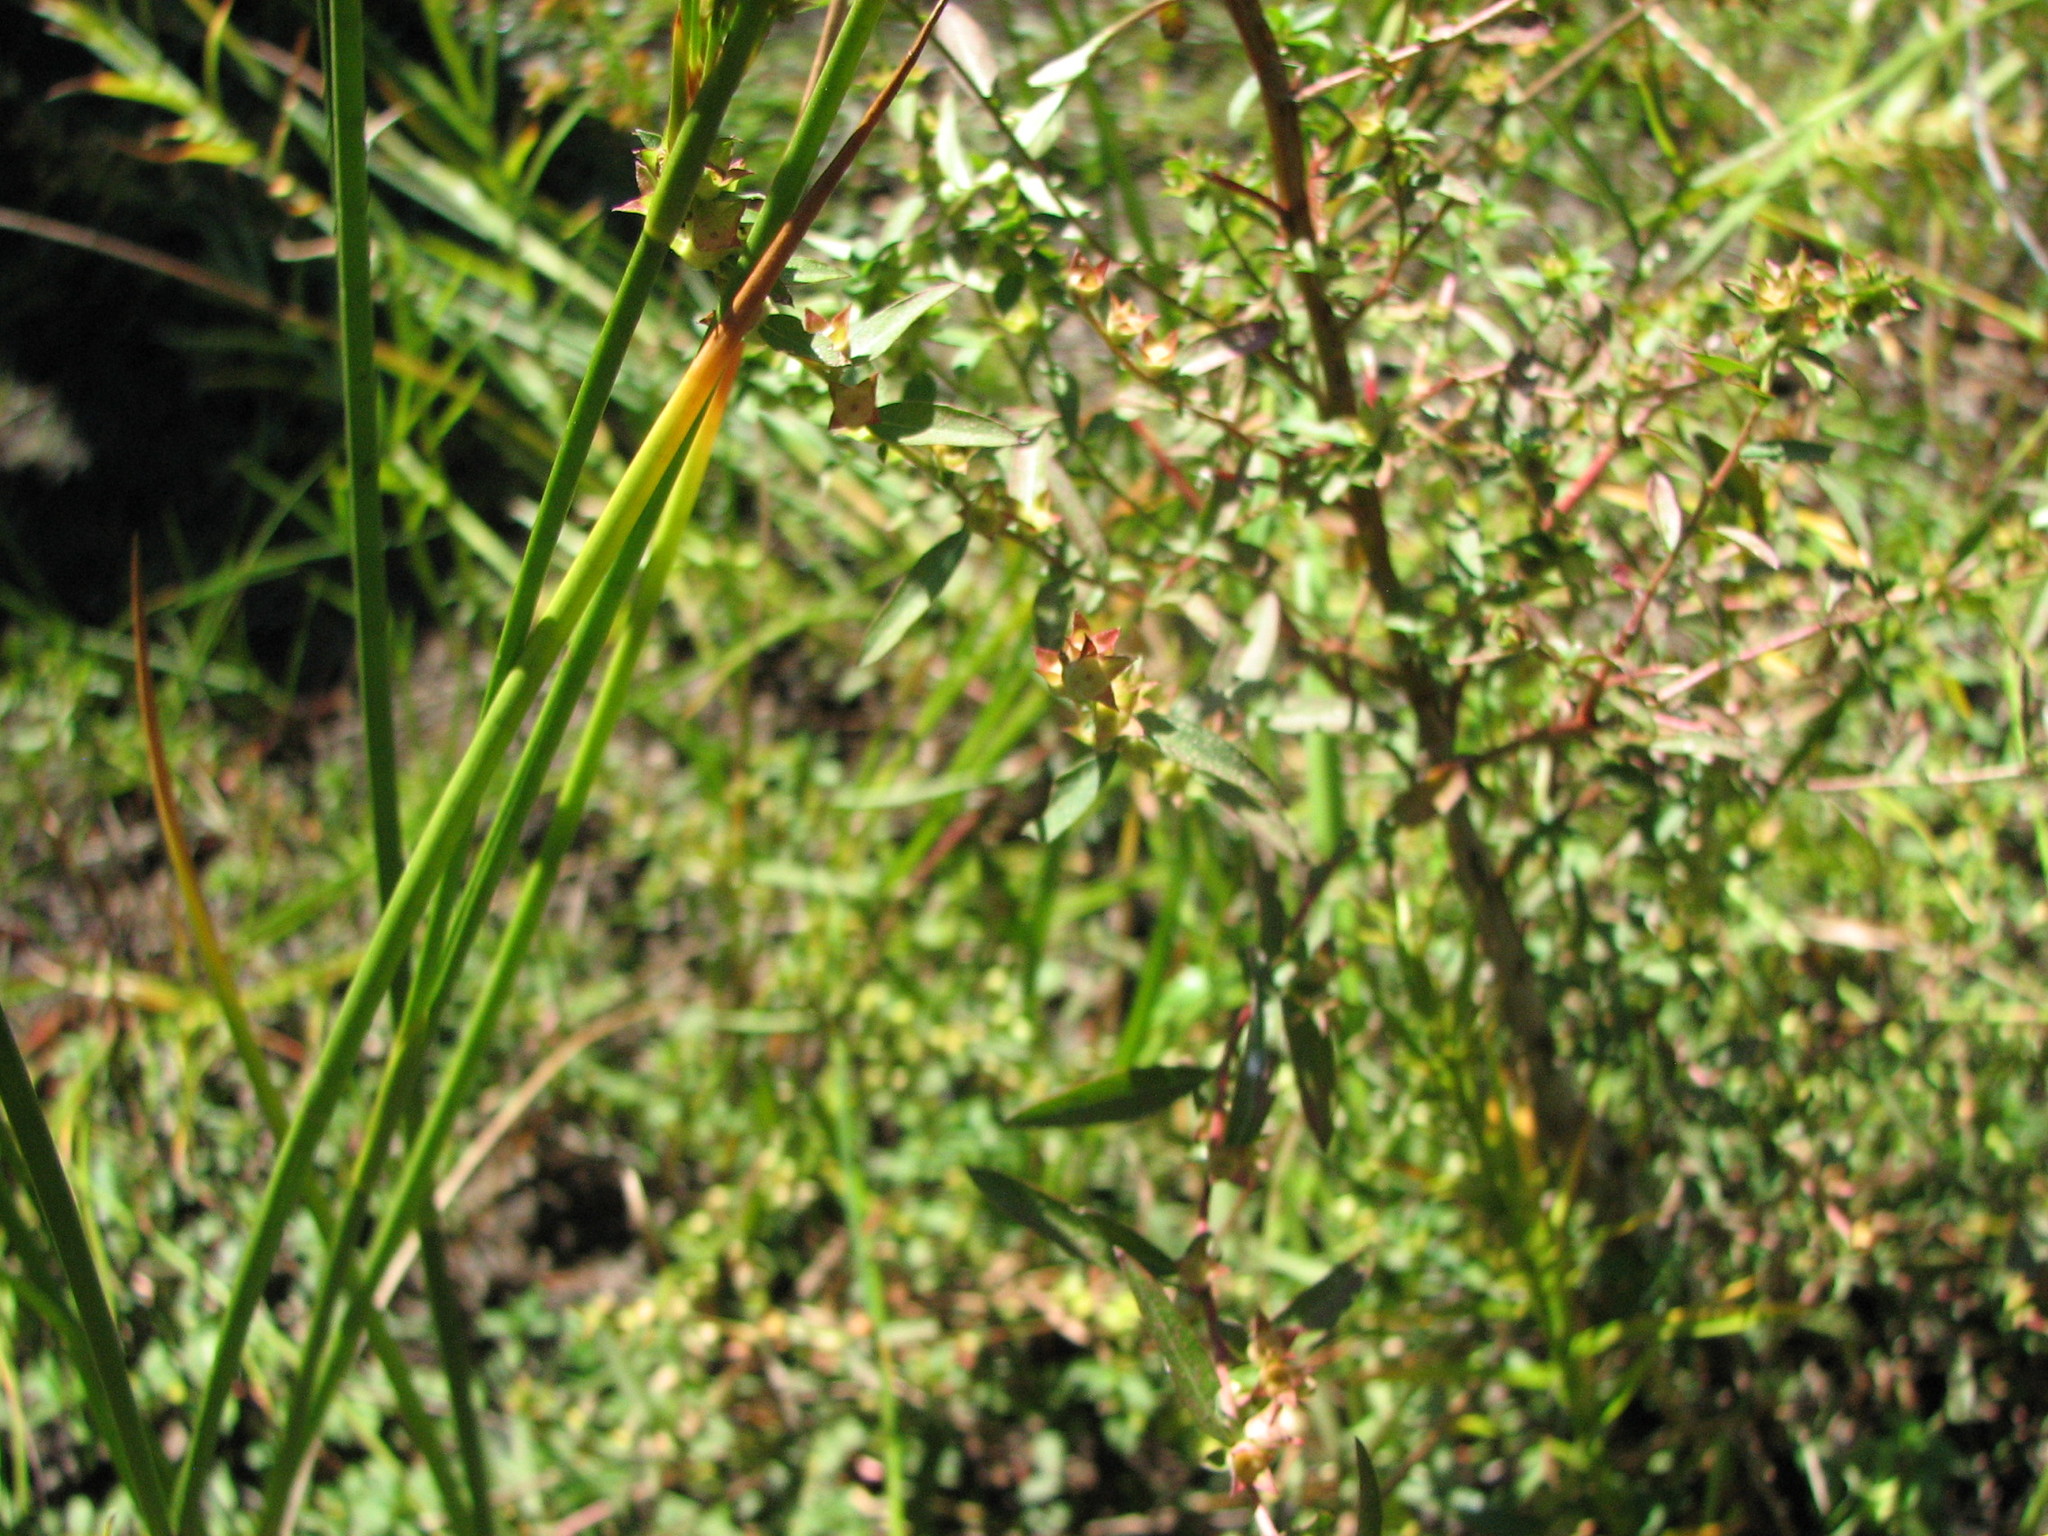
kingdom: Plantae
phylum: Tracheophyta
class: Magnoliopsida
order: Myrtales
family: Onagraceae
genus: Ludwigia
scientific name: Ludwigia sphaerocarpa
